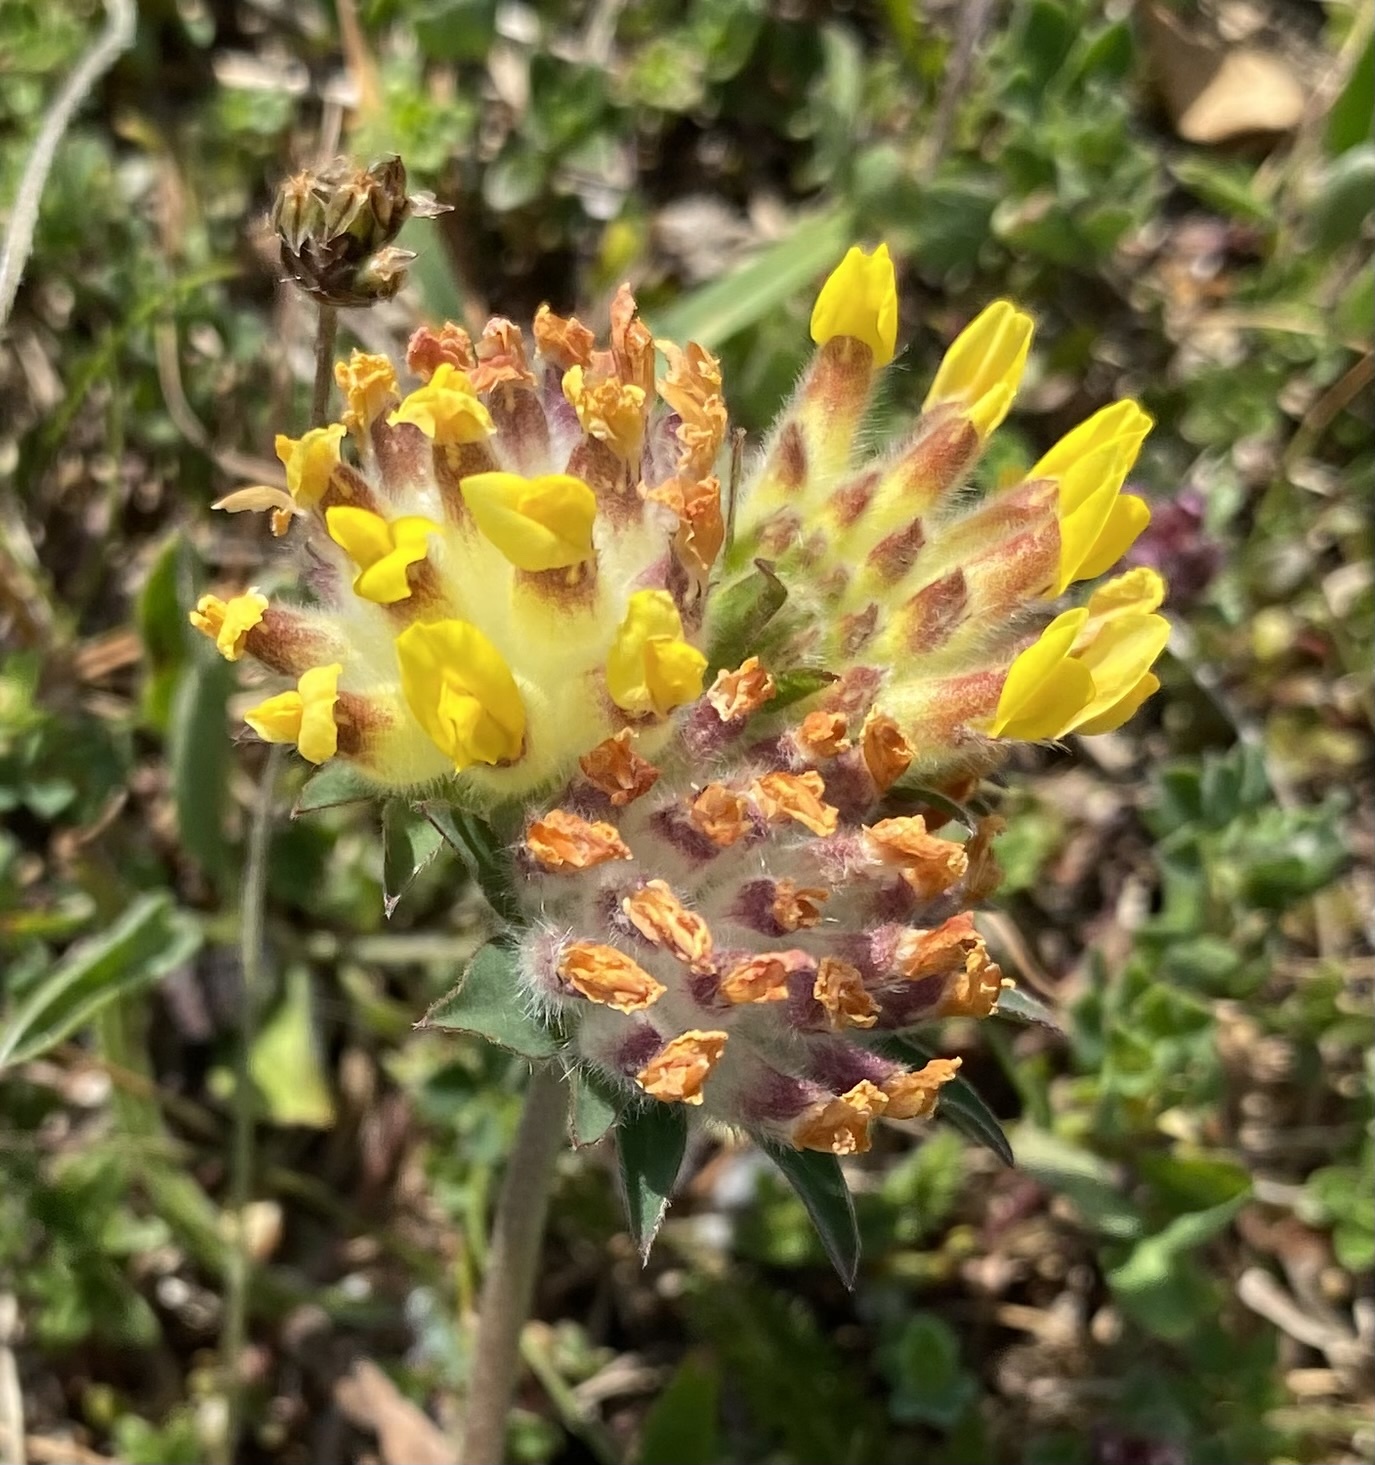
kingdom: Plantae
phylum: Tracheophyta
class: Magnoliopsida
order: Fabales
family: Fabaceae
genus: Anthyllis
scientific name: Anthyllis vulneraria
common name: Kidney vetch
